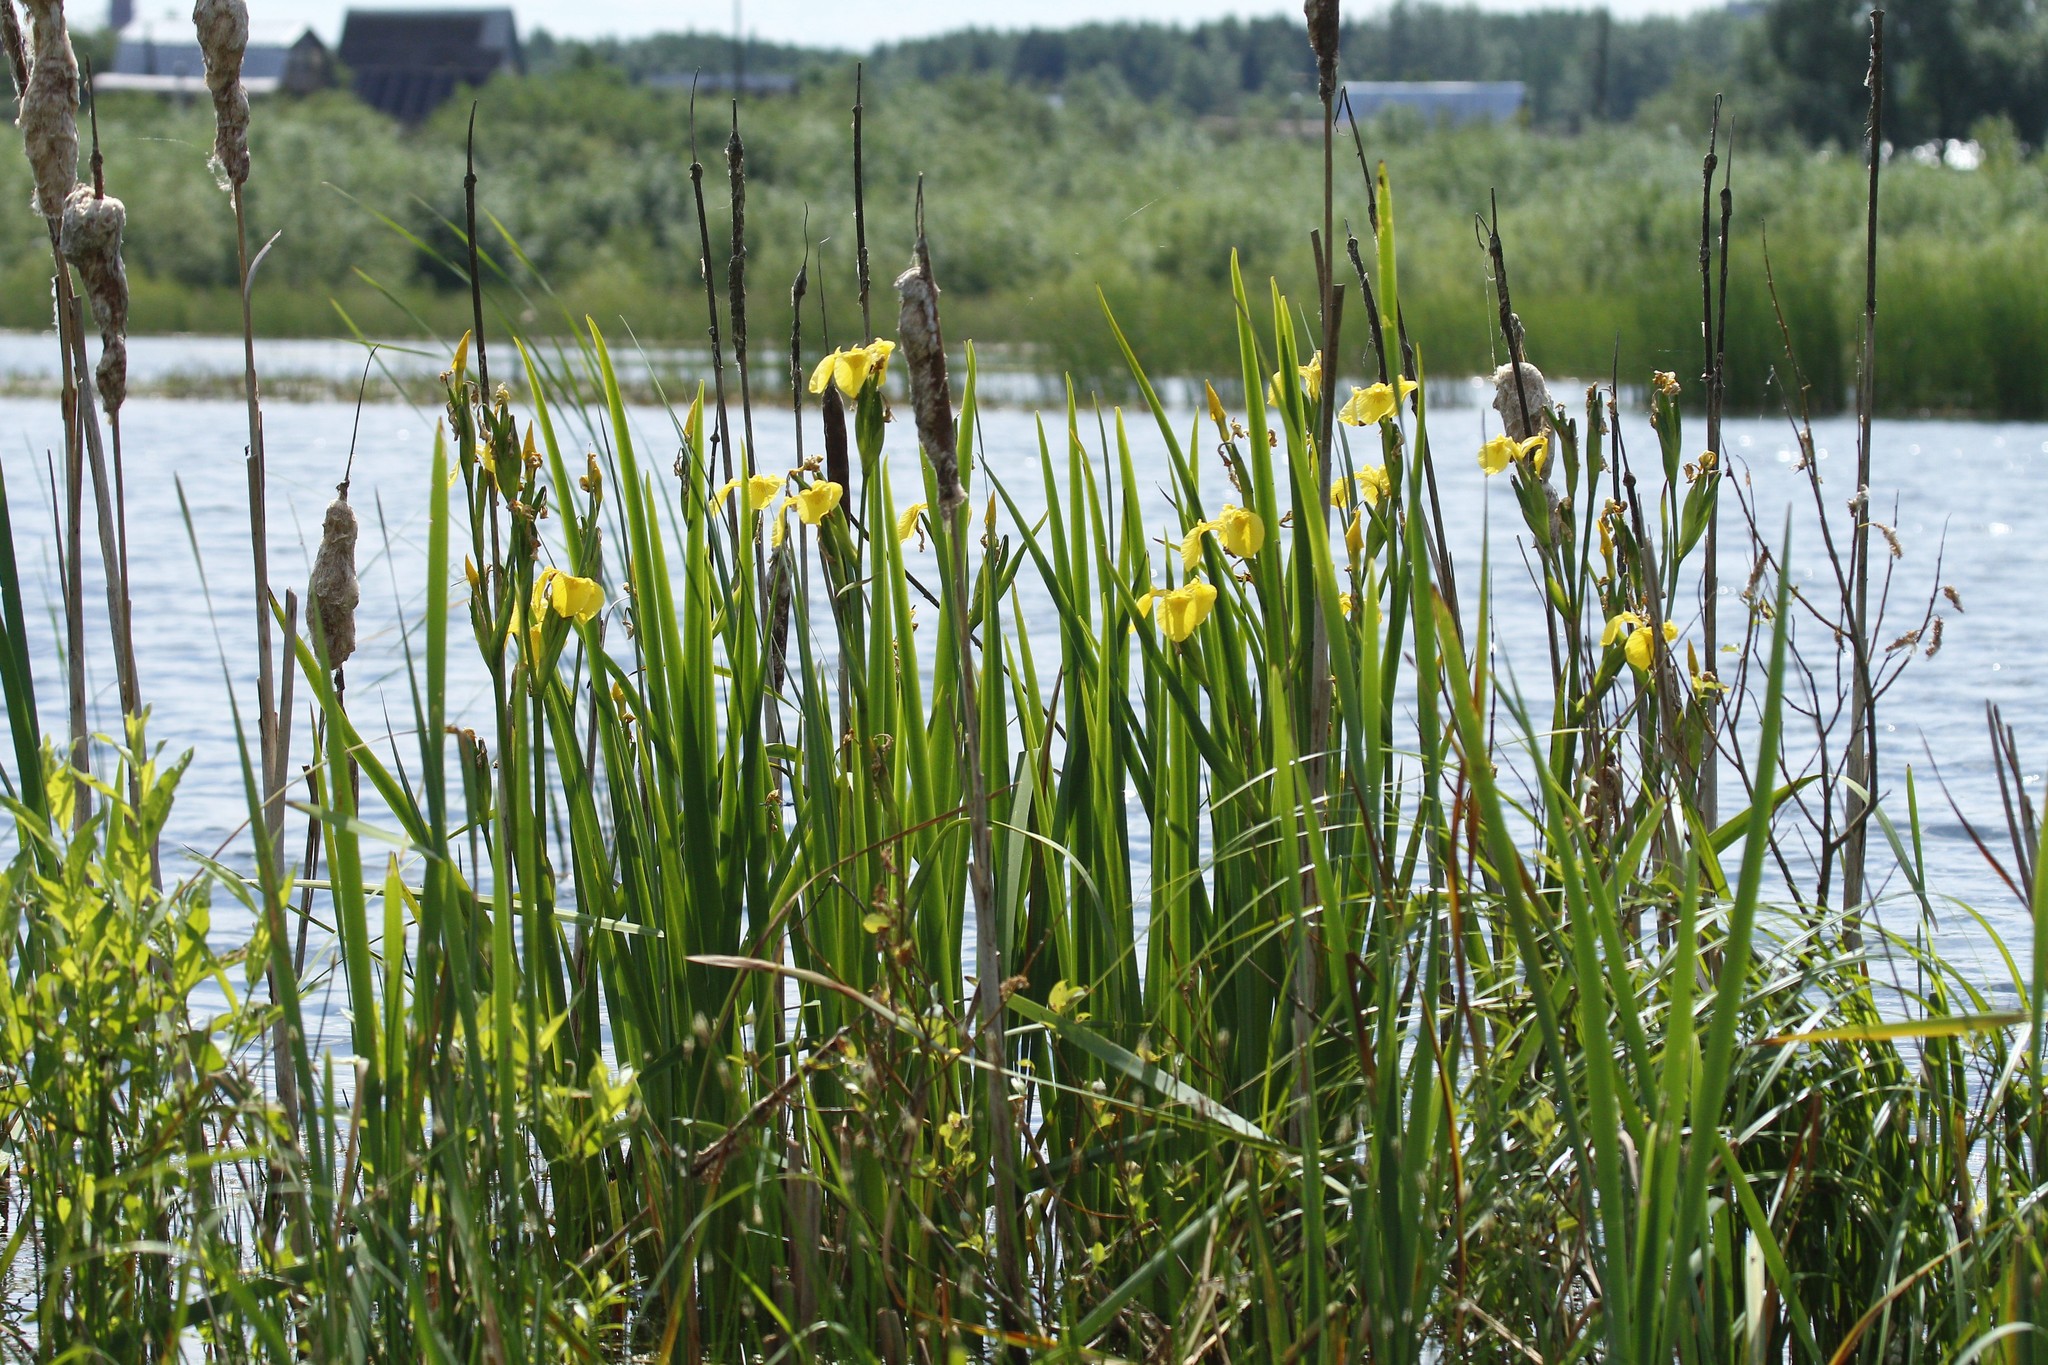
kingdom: Plantae
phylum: Tracheophyta
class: Liliopsida
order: Asparagales
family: Iridaceae
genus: Iris
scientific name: Iris pseudacorus
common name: Yellow flag
